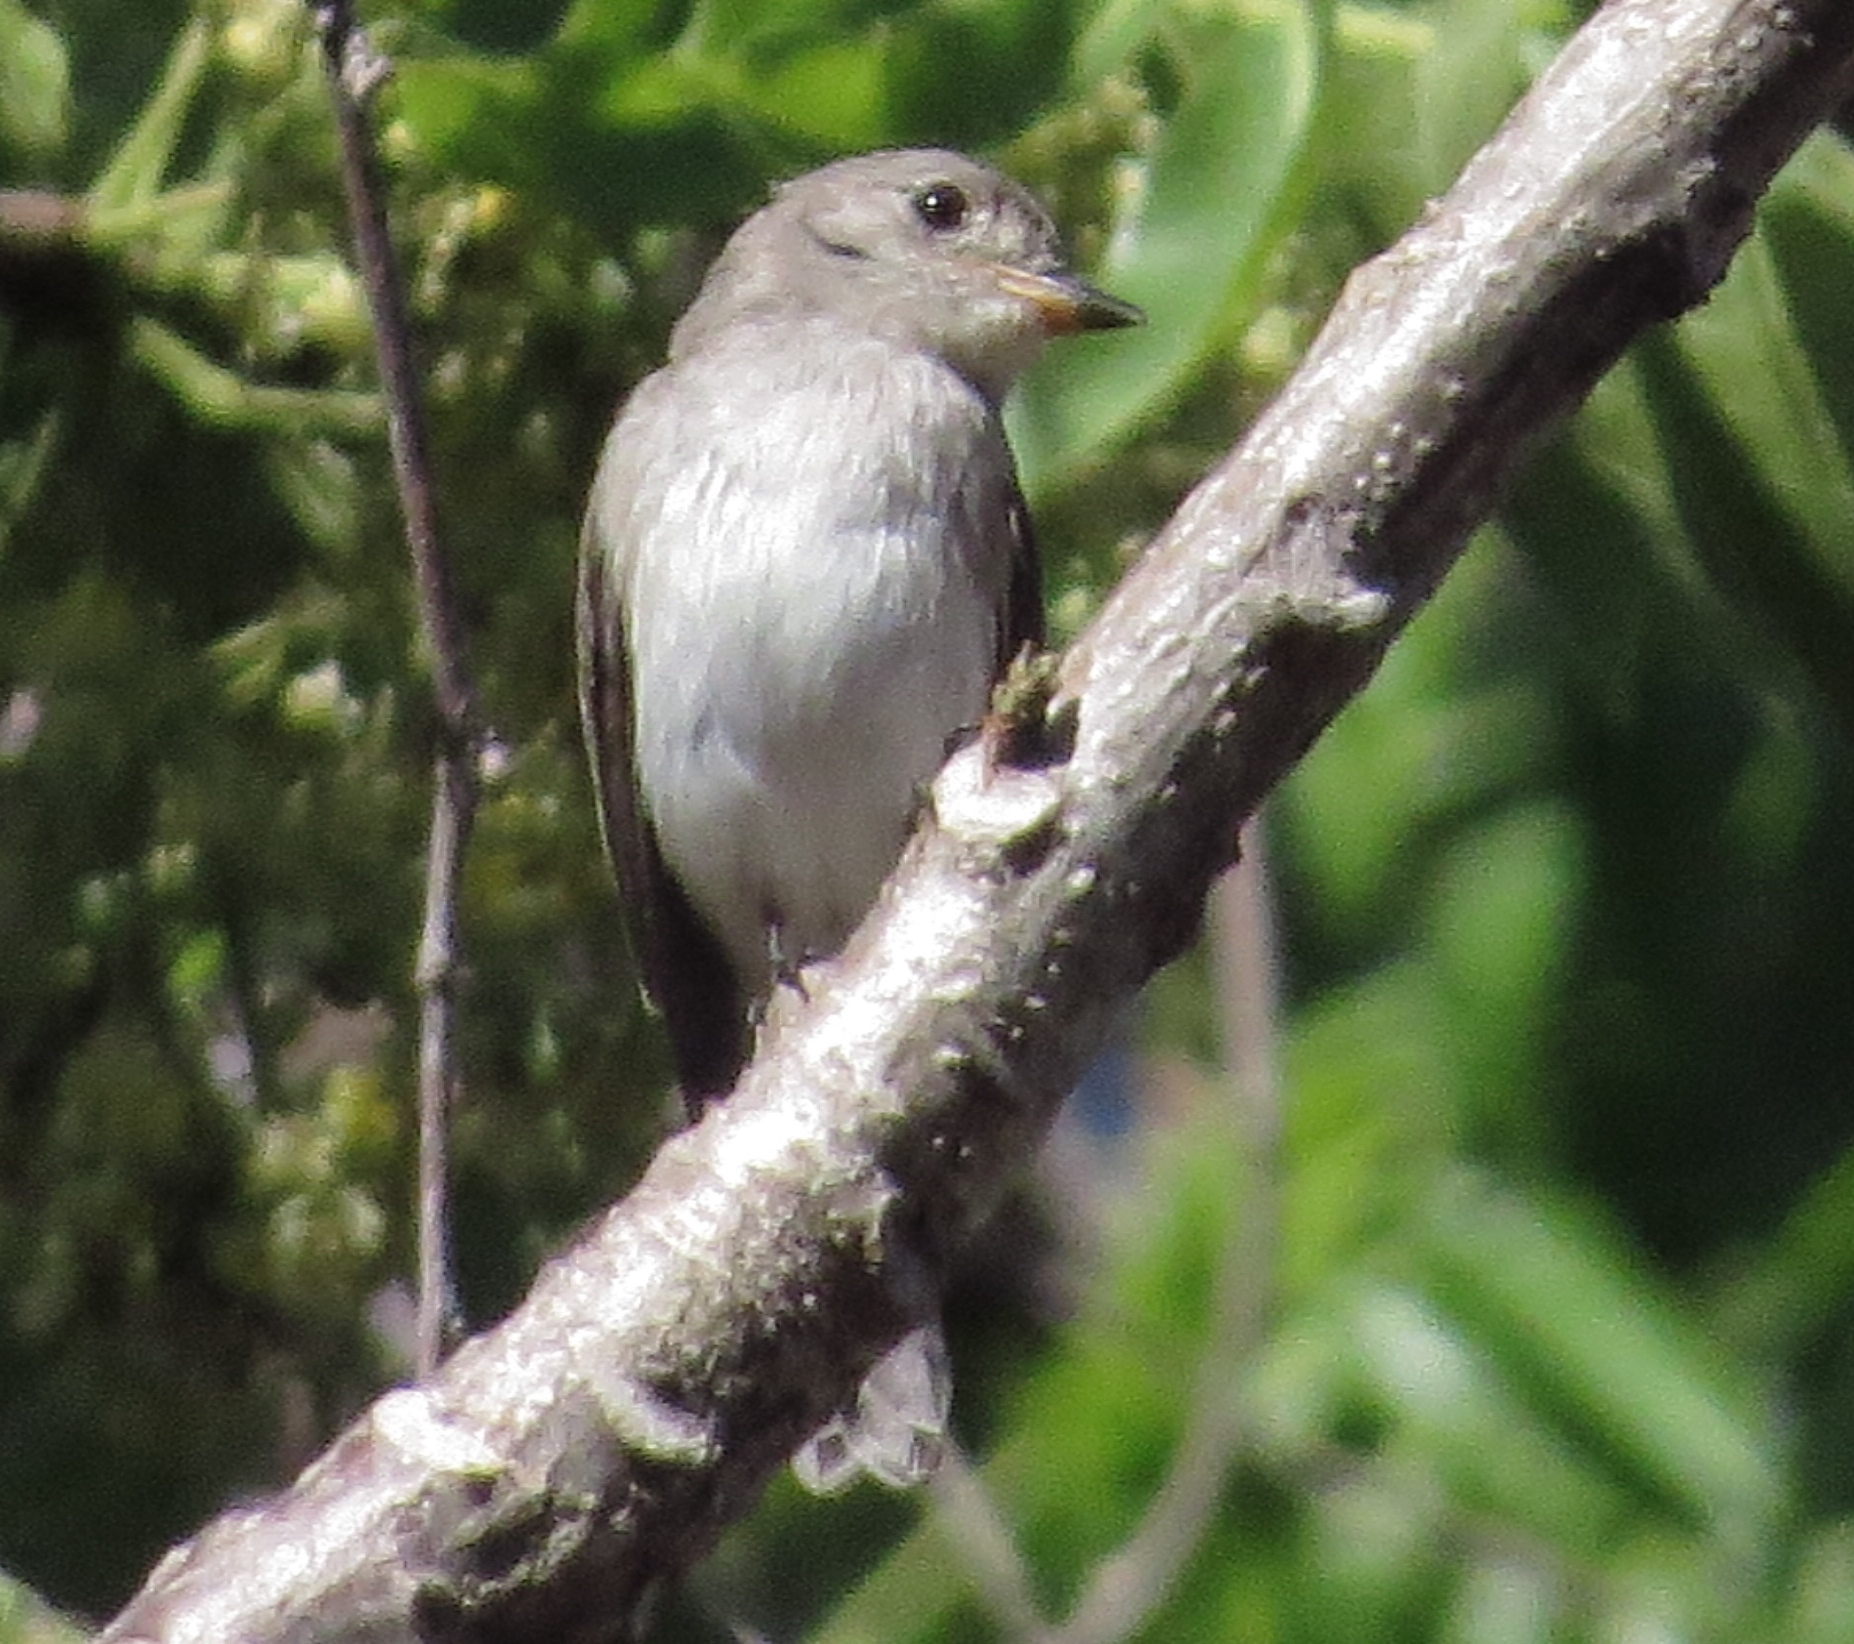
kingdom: Animalia
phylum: Chordata
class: Aves
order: Passeriformes
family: Muscicapidae
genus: Muscicapa
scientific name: Muscicapa segregata
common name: Sumba brown flycatcher
